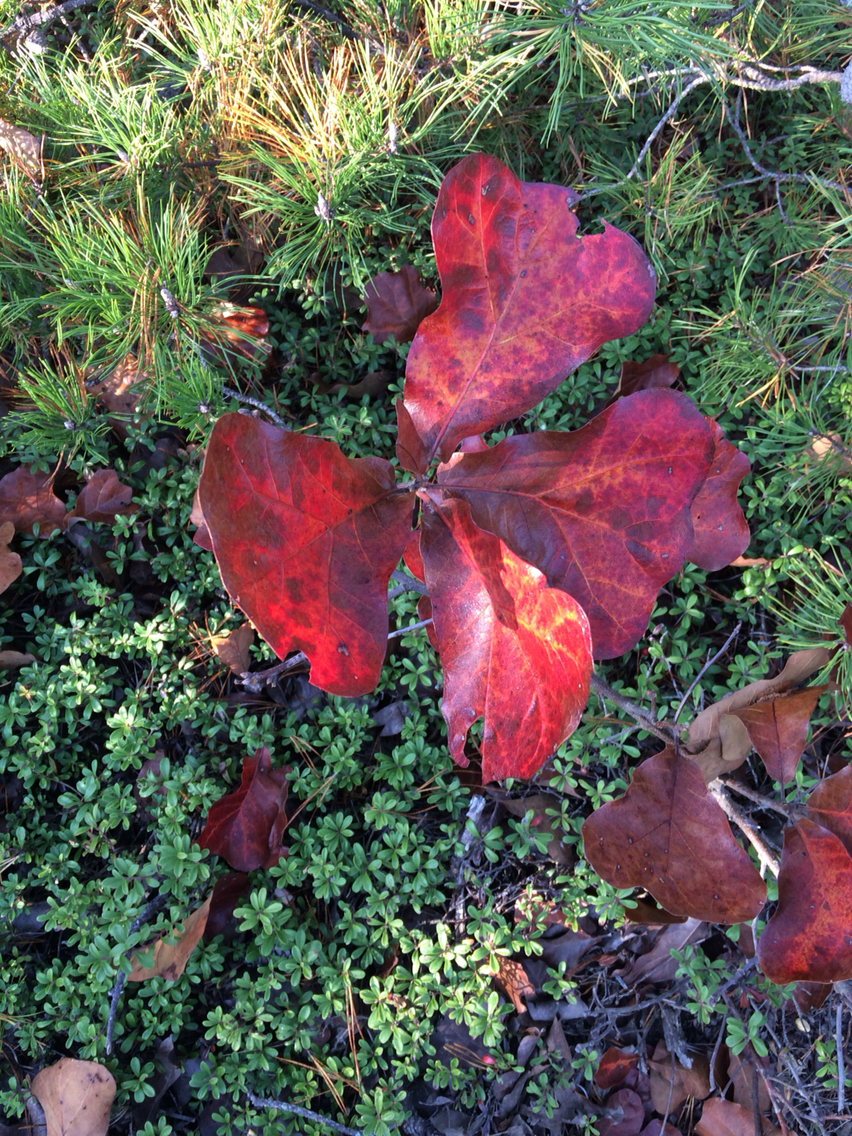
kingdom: Plantae
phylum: Tracheophyta
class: Magnoliopsida
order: Fagales
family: Fagaceae
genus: Quercus
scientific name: Quercus marilandica
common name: Blackjack oak
